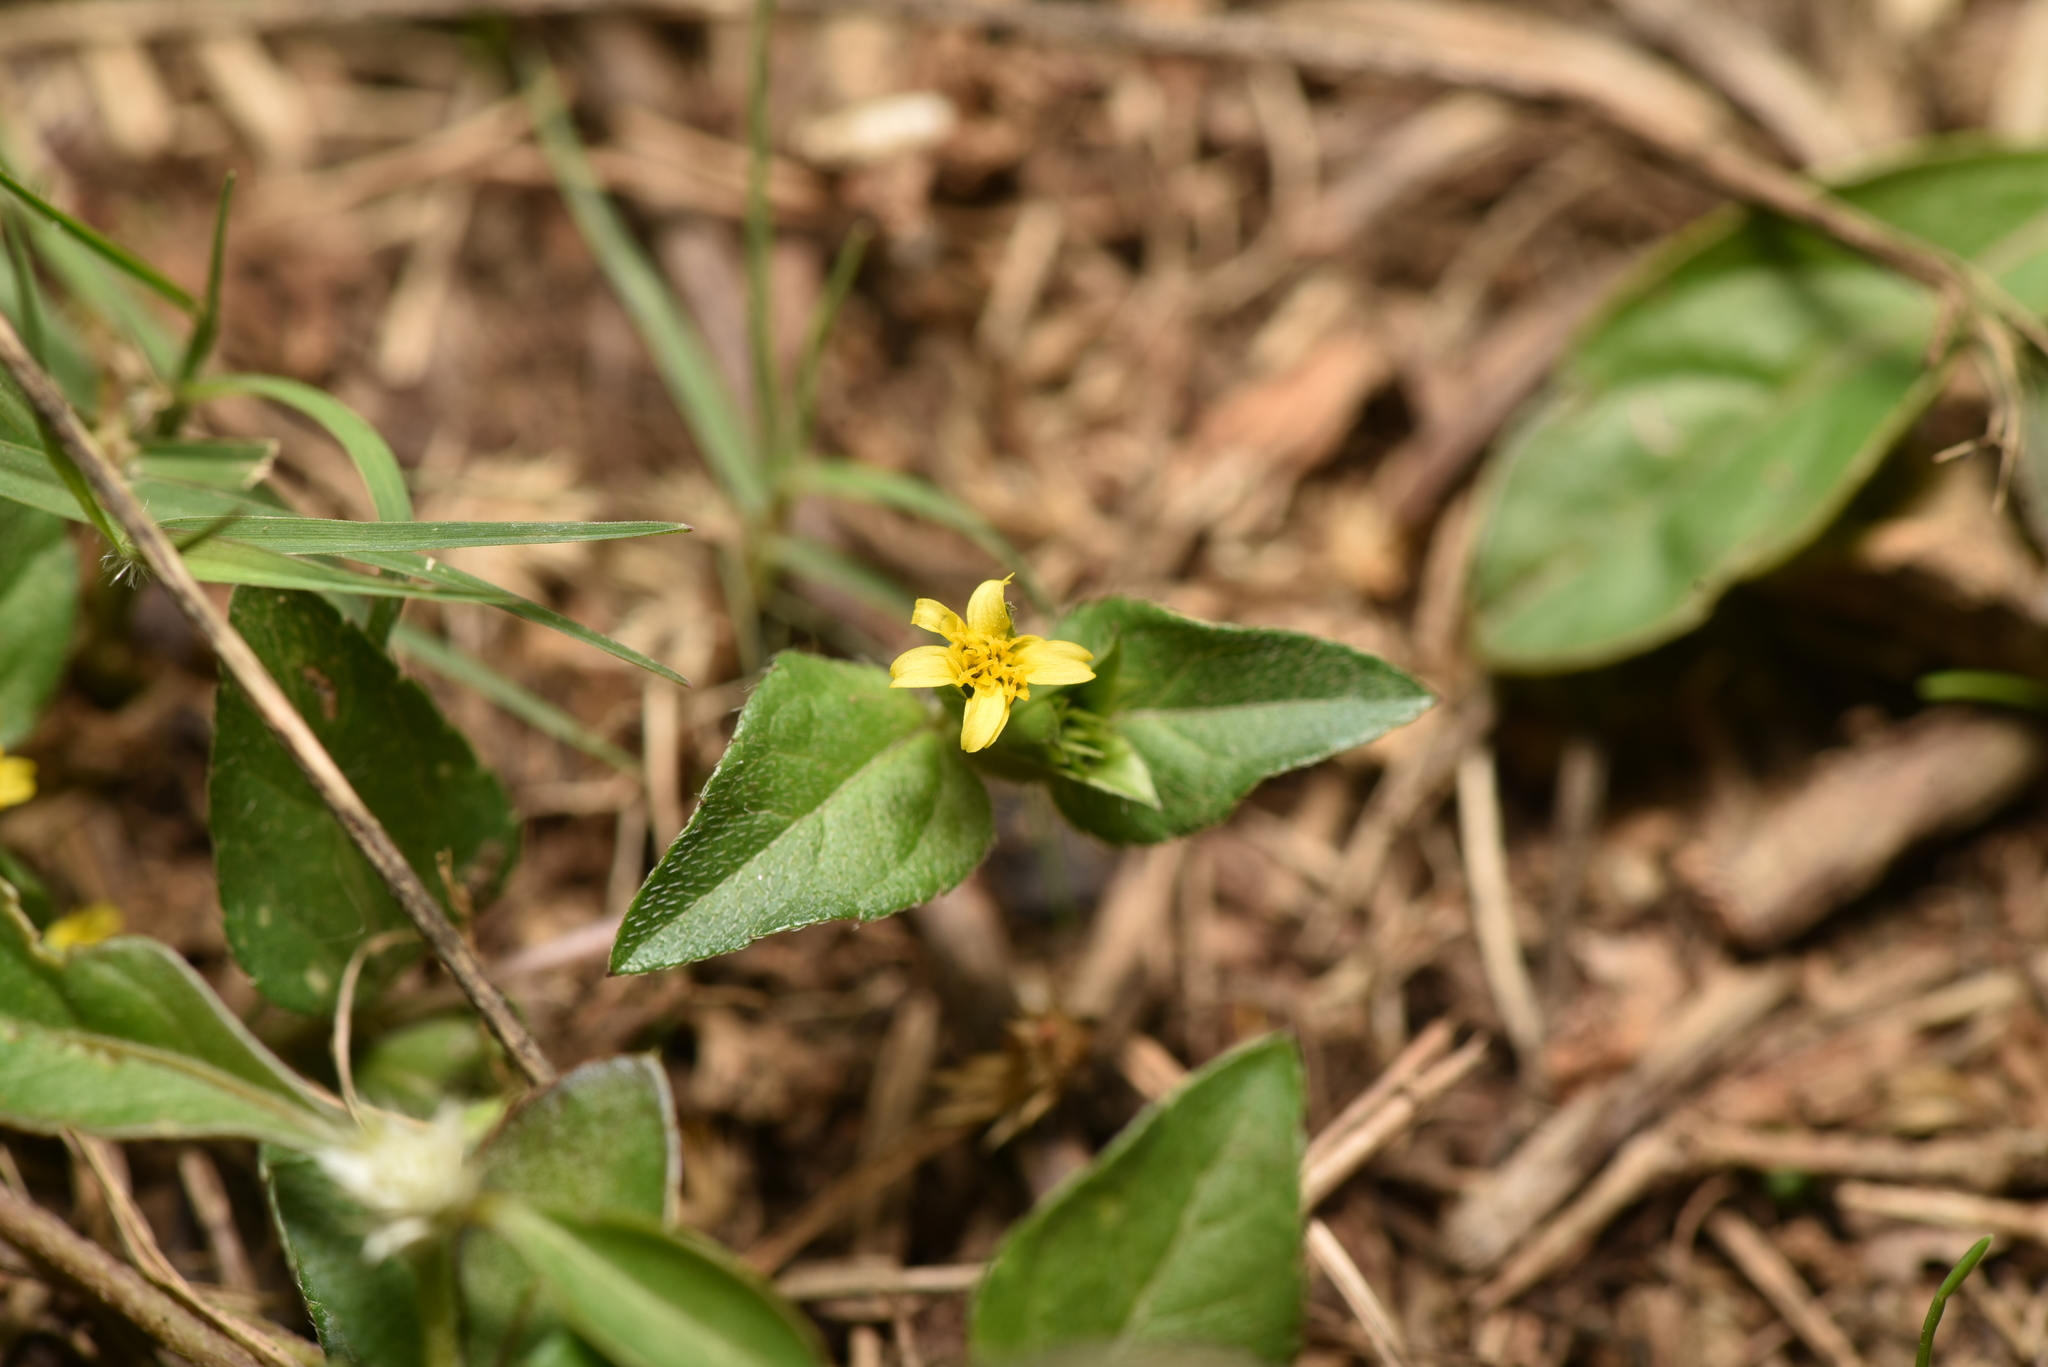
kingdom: Plantae
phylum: Tracheophyta
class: Magnoliopsida
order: Asterales
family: Asteraceae
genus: Calyptocarpus
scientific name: Calyptocarpus vialis
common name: Straggler daisy
